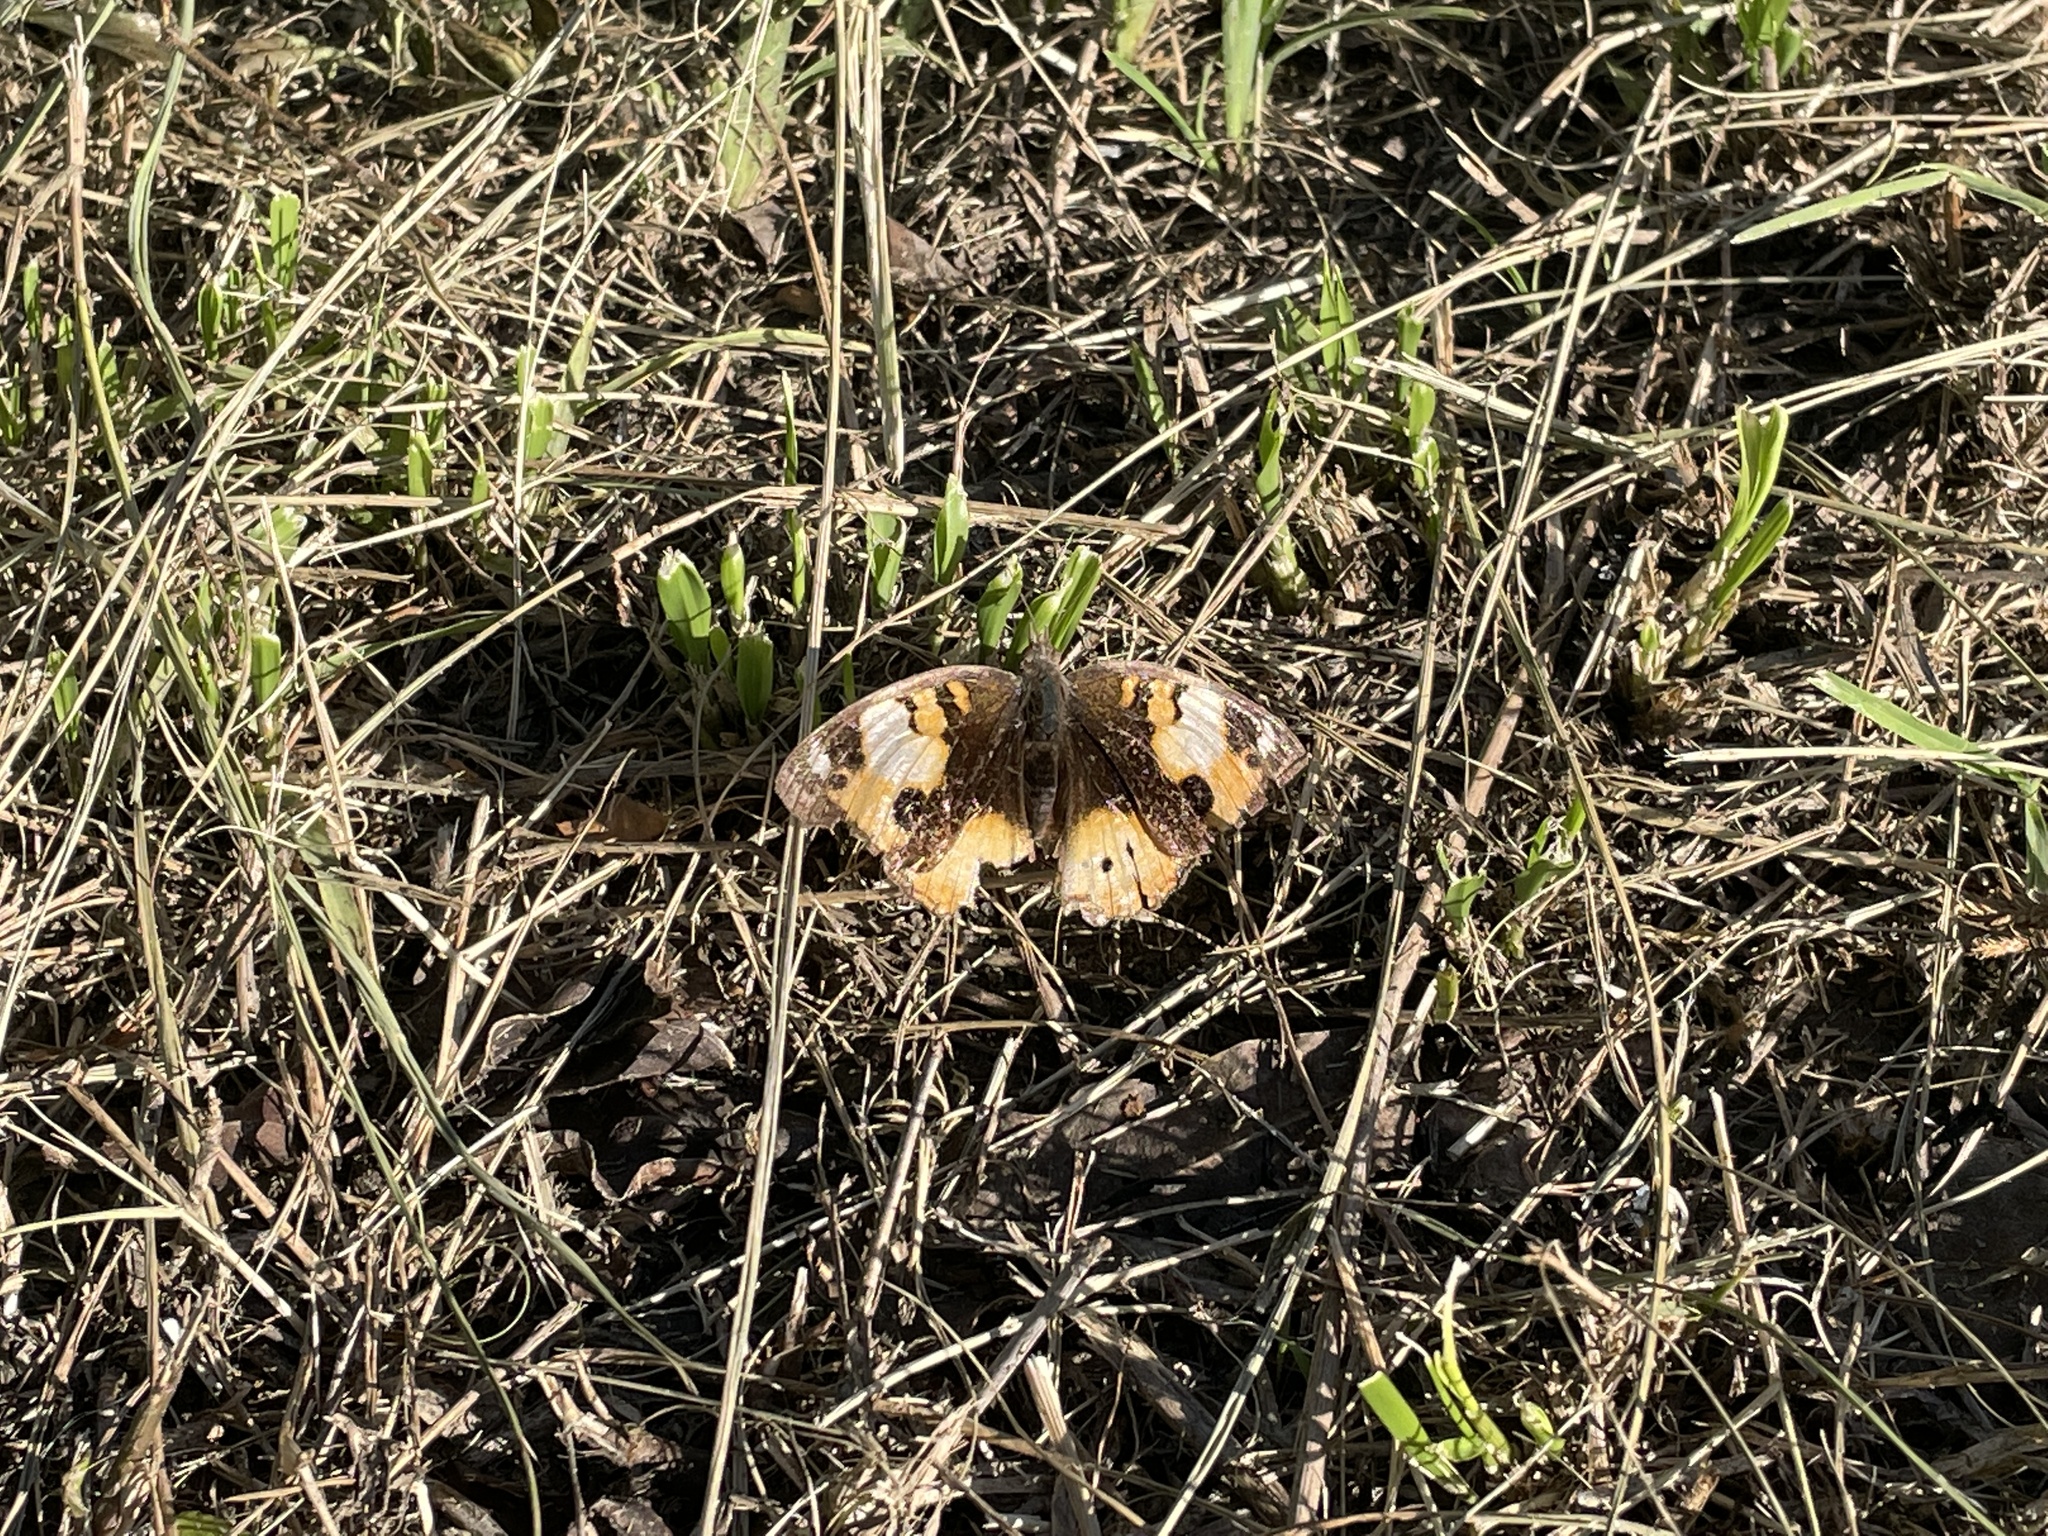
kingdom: Animalia
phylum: Arthropoda
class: Insecta
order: Lepidoptera
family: Nymphalidae
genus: Junonia
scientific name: Junonia hierta
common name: Yellow pansy
